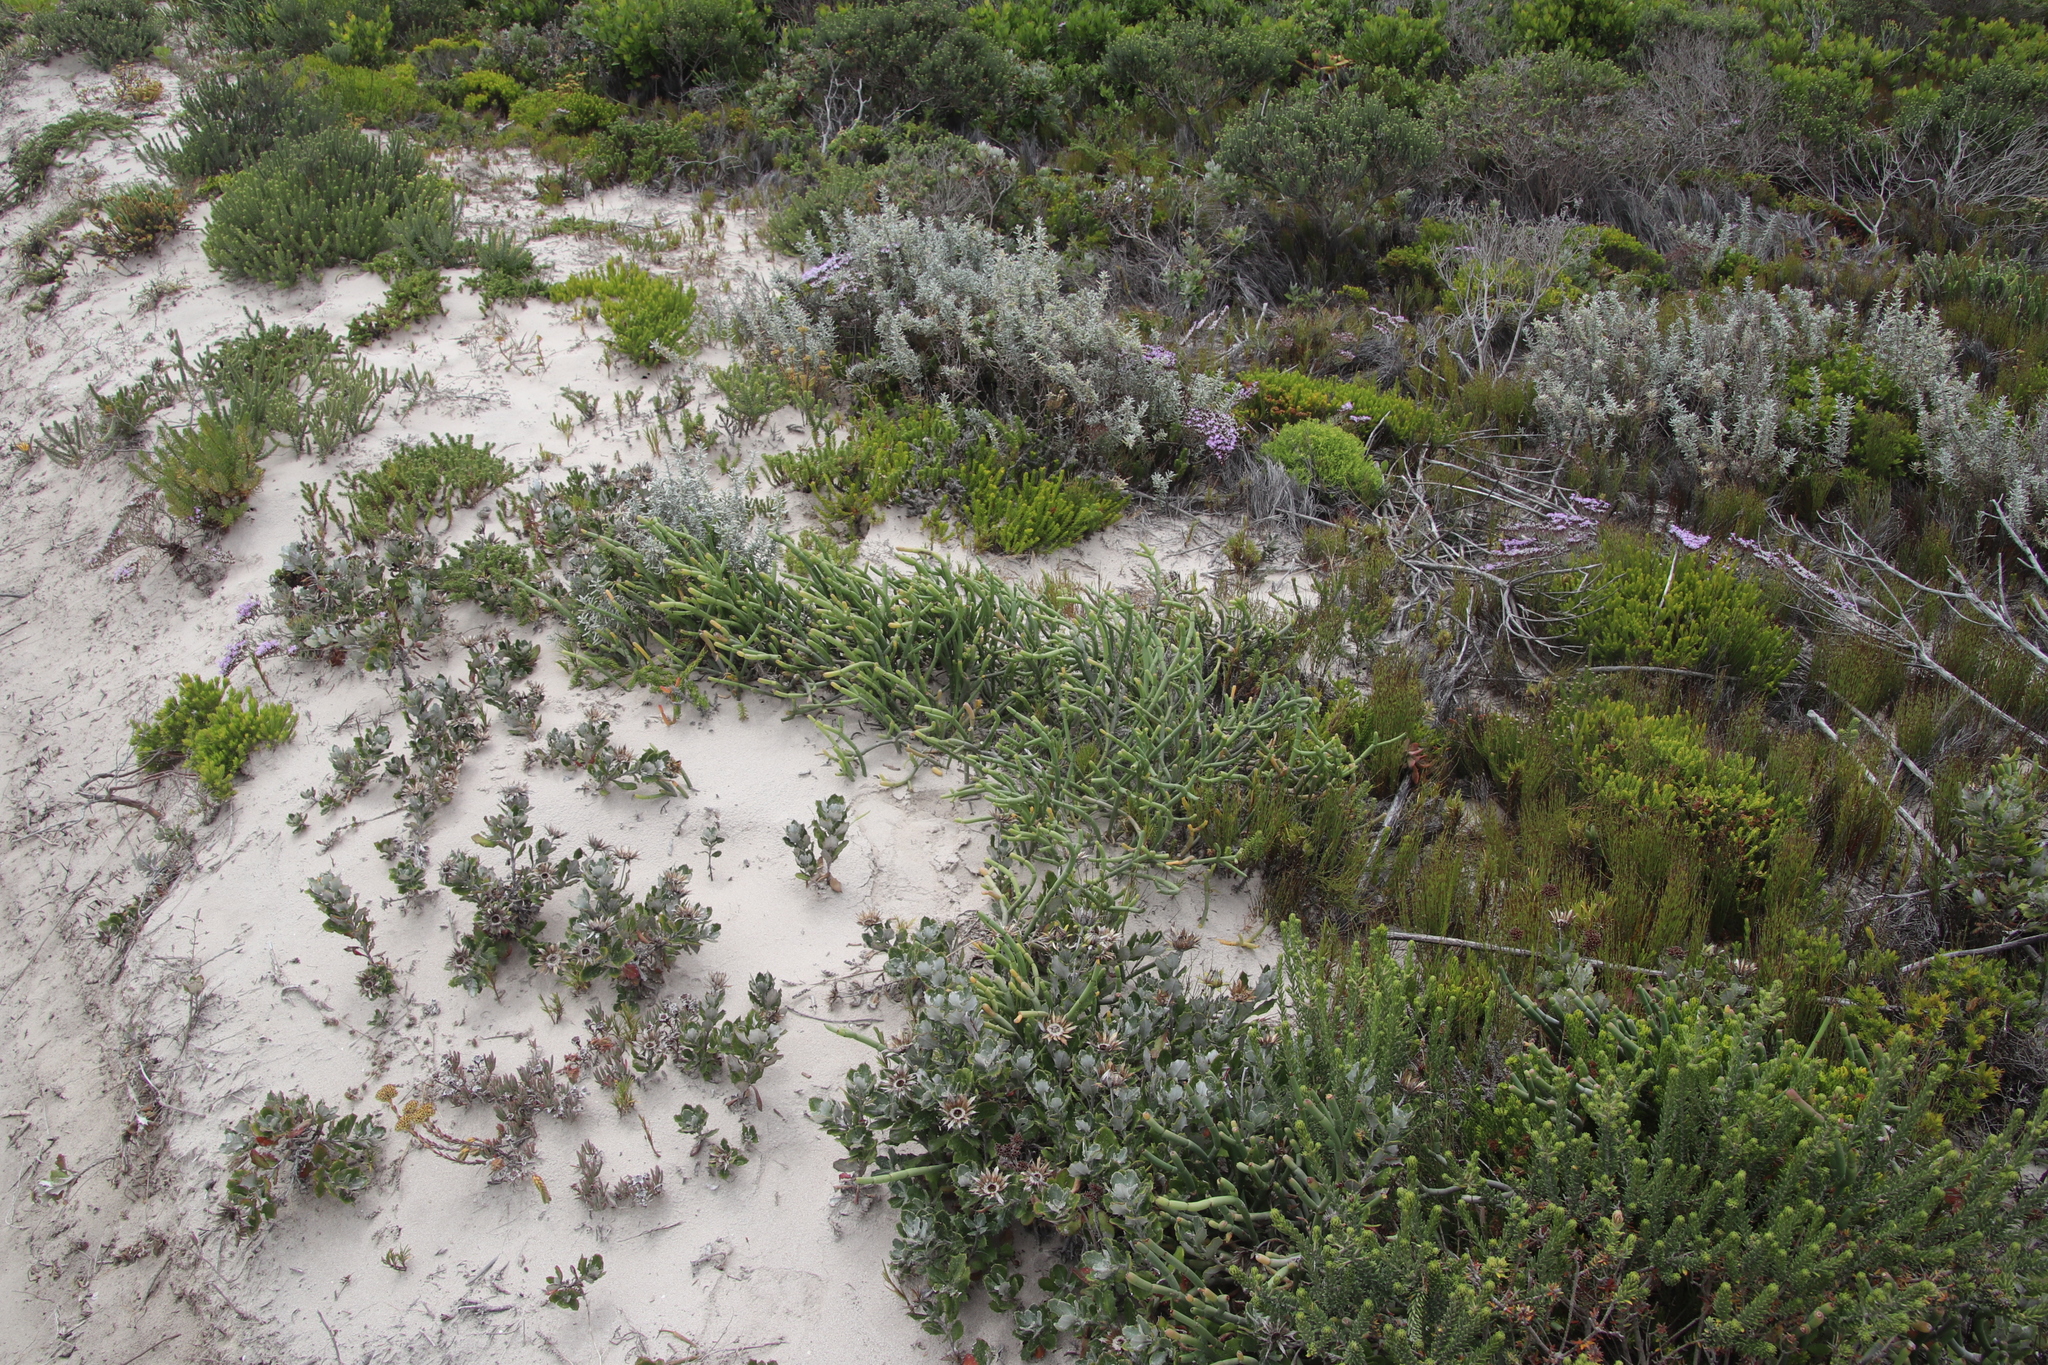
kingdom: Plantae
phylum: Tracheophyta
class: Magnoliopsida
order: Malpighiales
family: Euphorbiaceae
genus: Euphorbia
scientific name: Euphorbia burmanni
